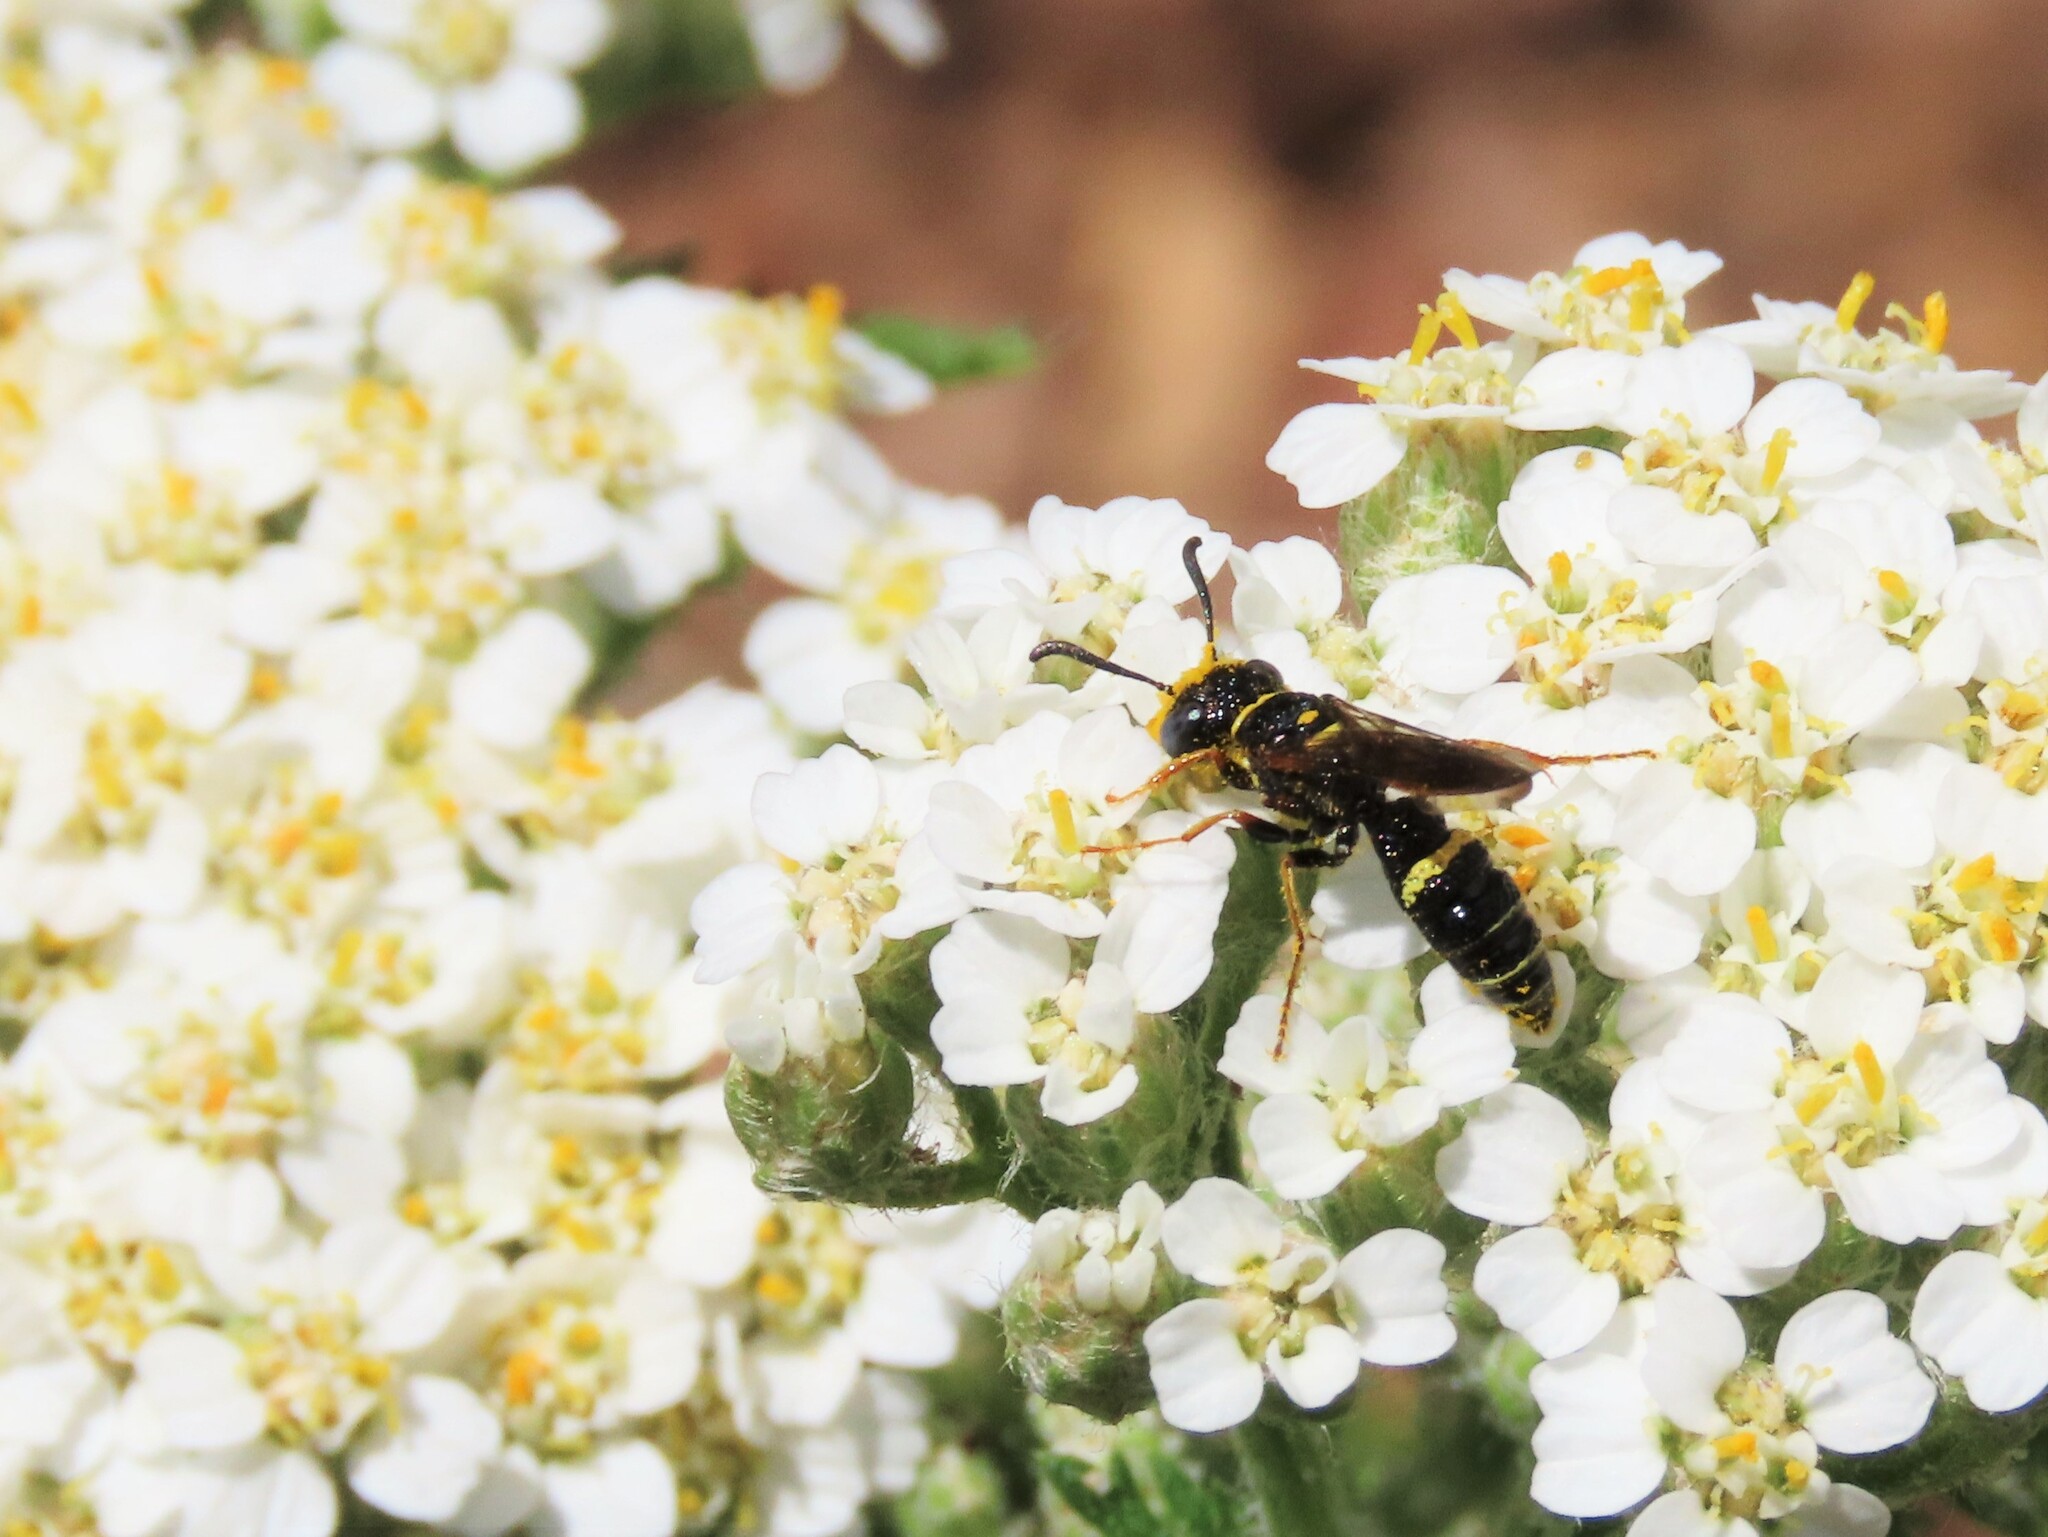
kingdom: Animalia
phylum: Arthropoda
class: Insecta
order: Hymenoptera
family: Crabronidae
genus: Philanthus
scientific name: Philanthus gibbosus
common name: Humped beewolf
